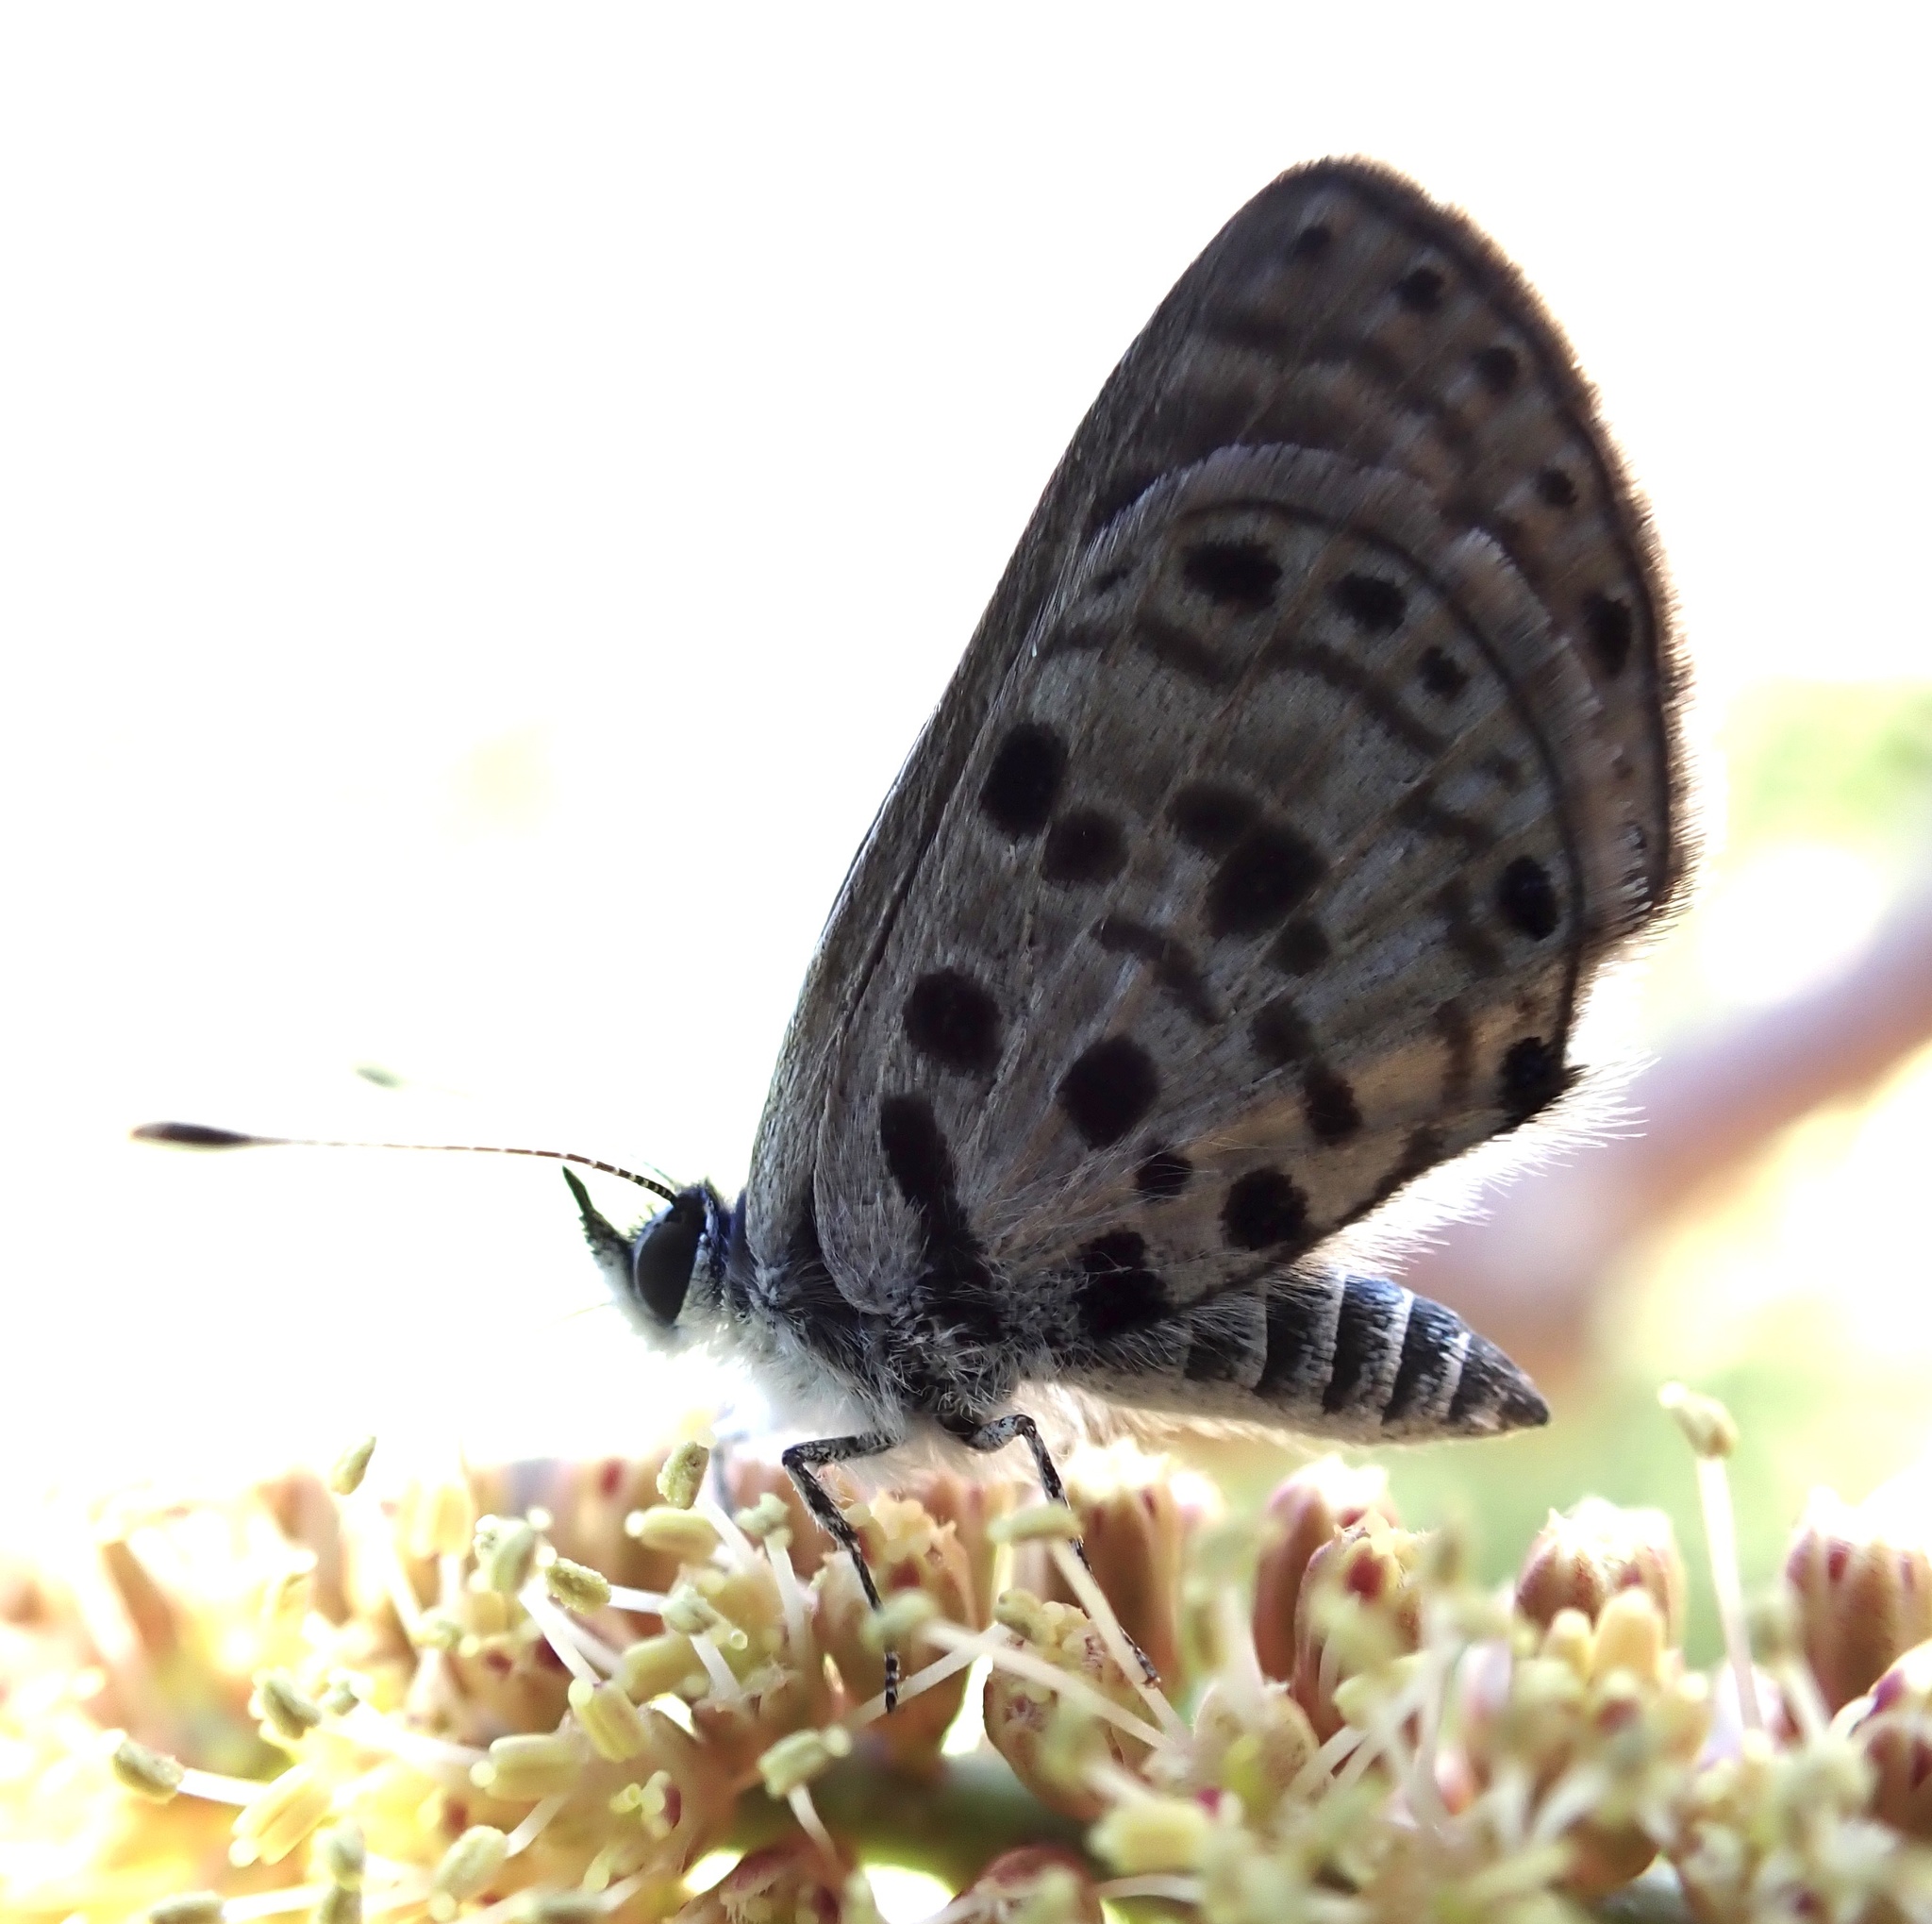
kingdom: Animalia
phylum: Arthropoda
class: Insecta
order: Lepidoptera
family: Lycaenidae
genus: Azanus
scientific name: Azanus moriqua
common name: Thorn-tree babul blue
